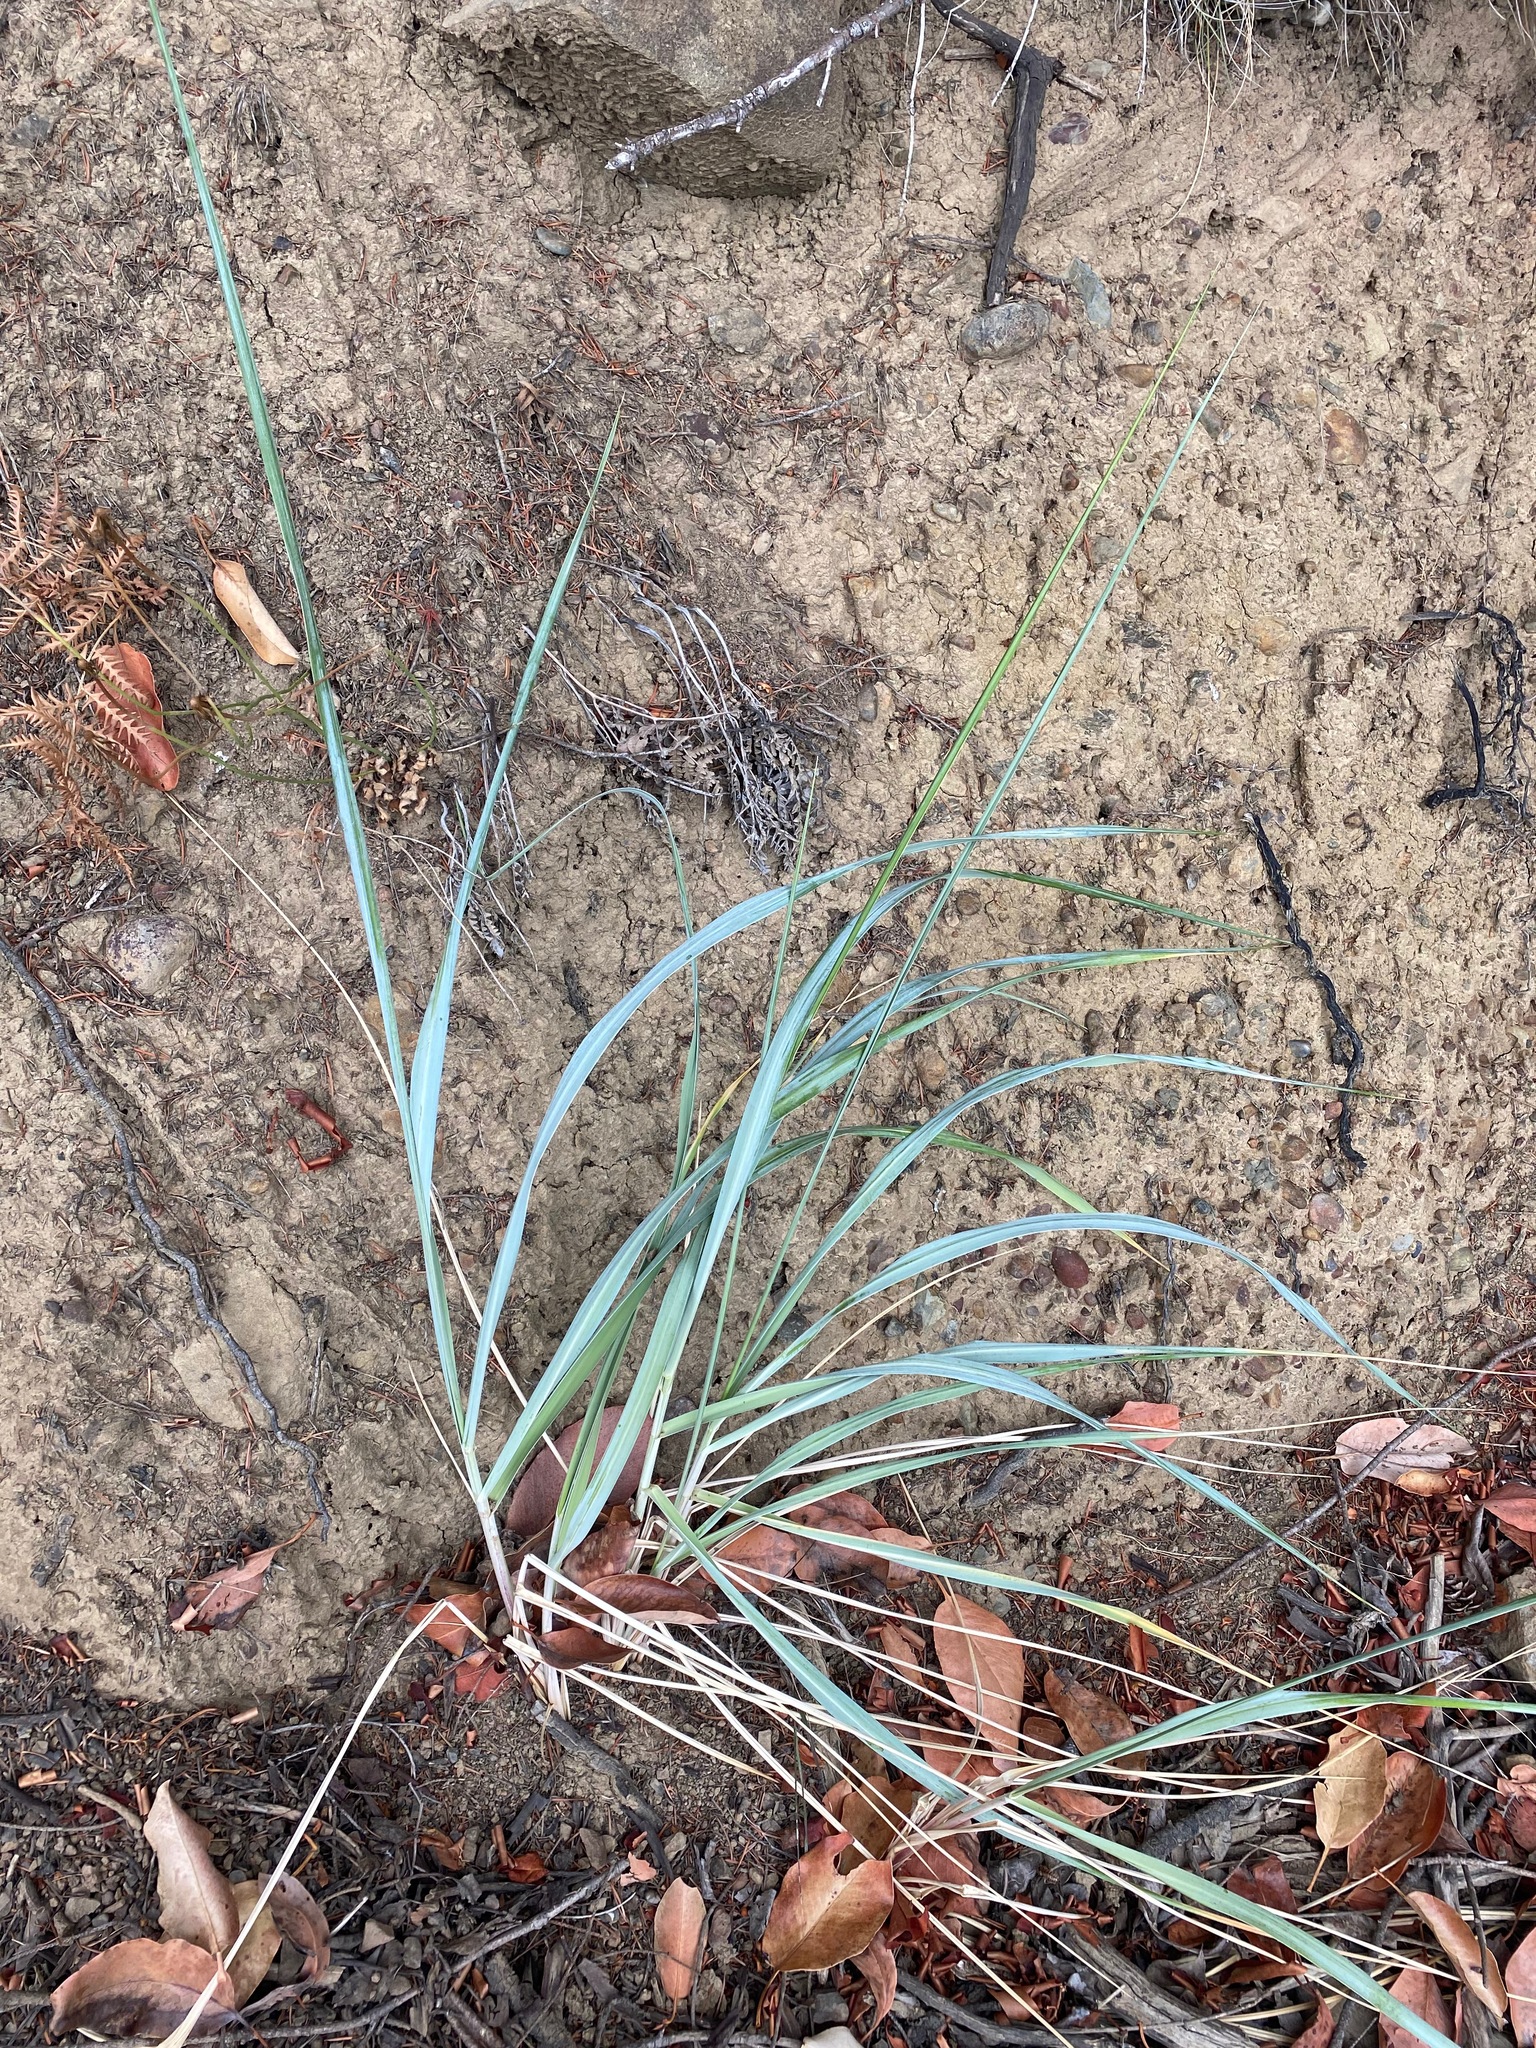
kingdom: Plantae
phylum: Tracheophyta
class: Liliopsida
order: Poales
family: Poaceae
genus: Leymus
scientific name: Leymus mollis
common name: American dune grass
